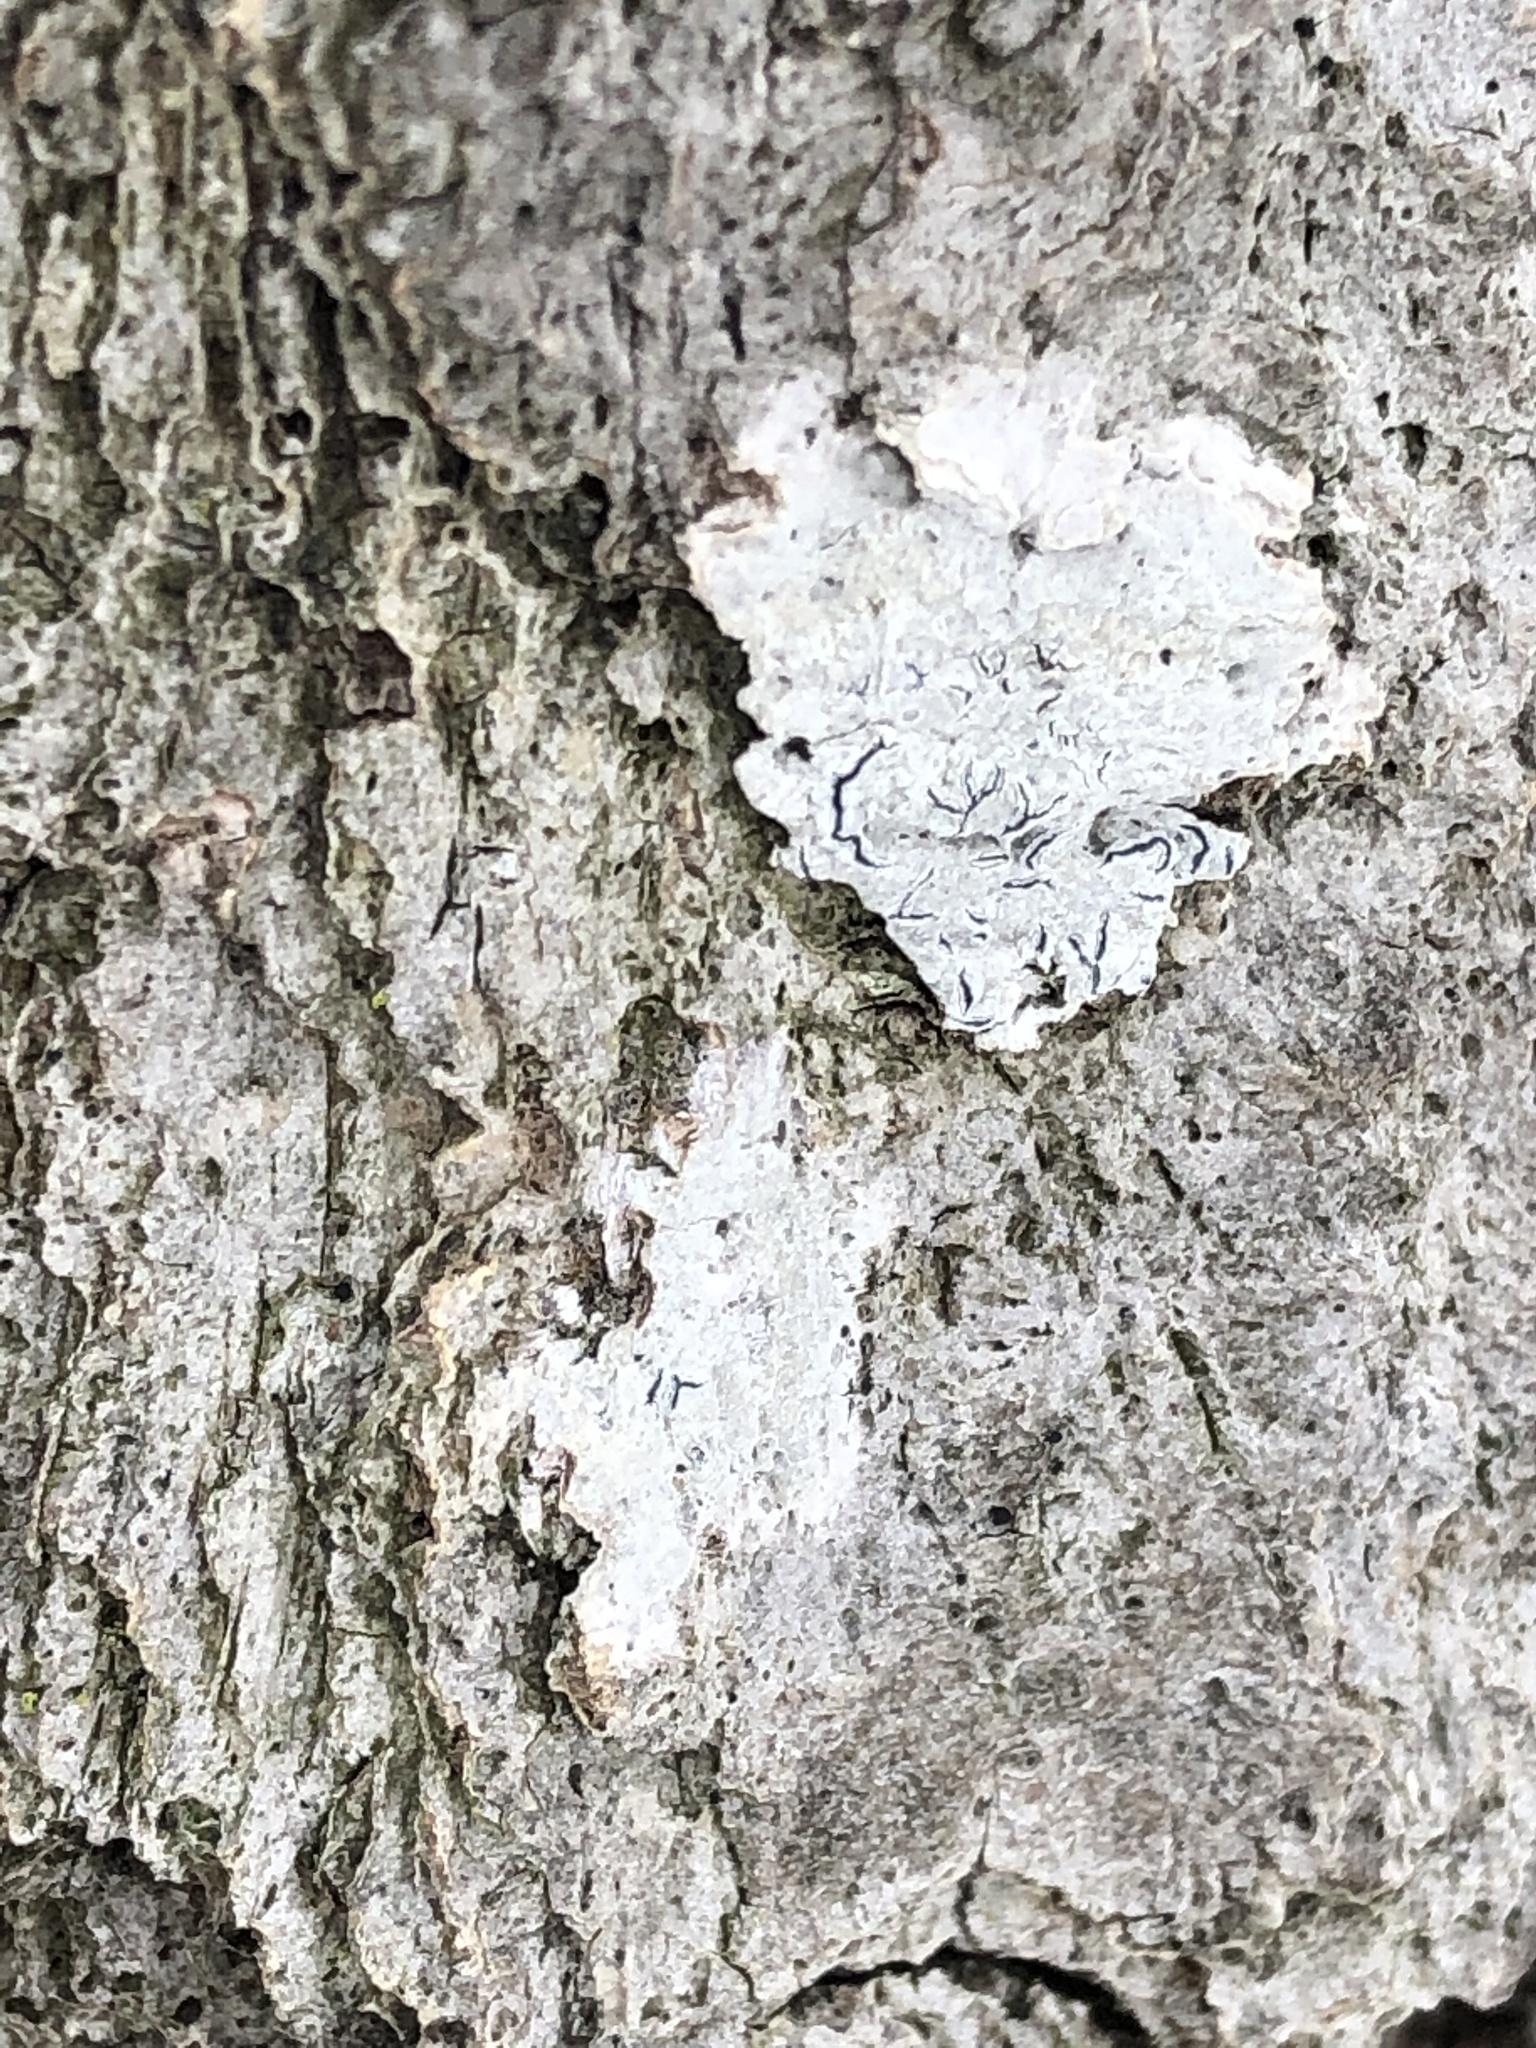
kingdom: Fungi
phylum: Ascomycota
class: Lecanoromycetes
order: Ostropales
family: Graphidaceae
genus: Graphis
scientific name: Graphis scripta
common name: Script lichen
